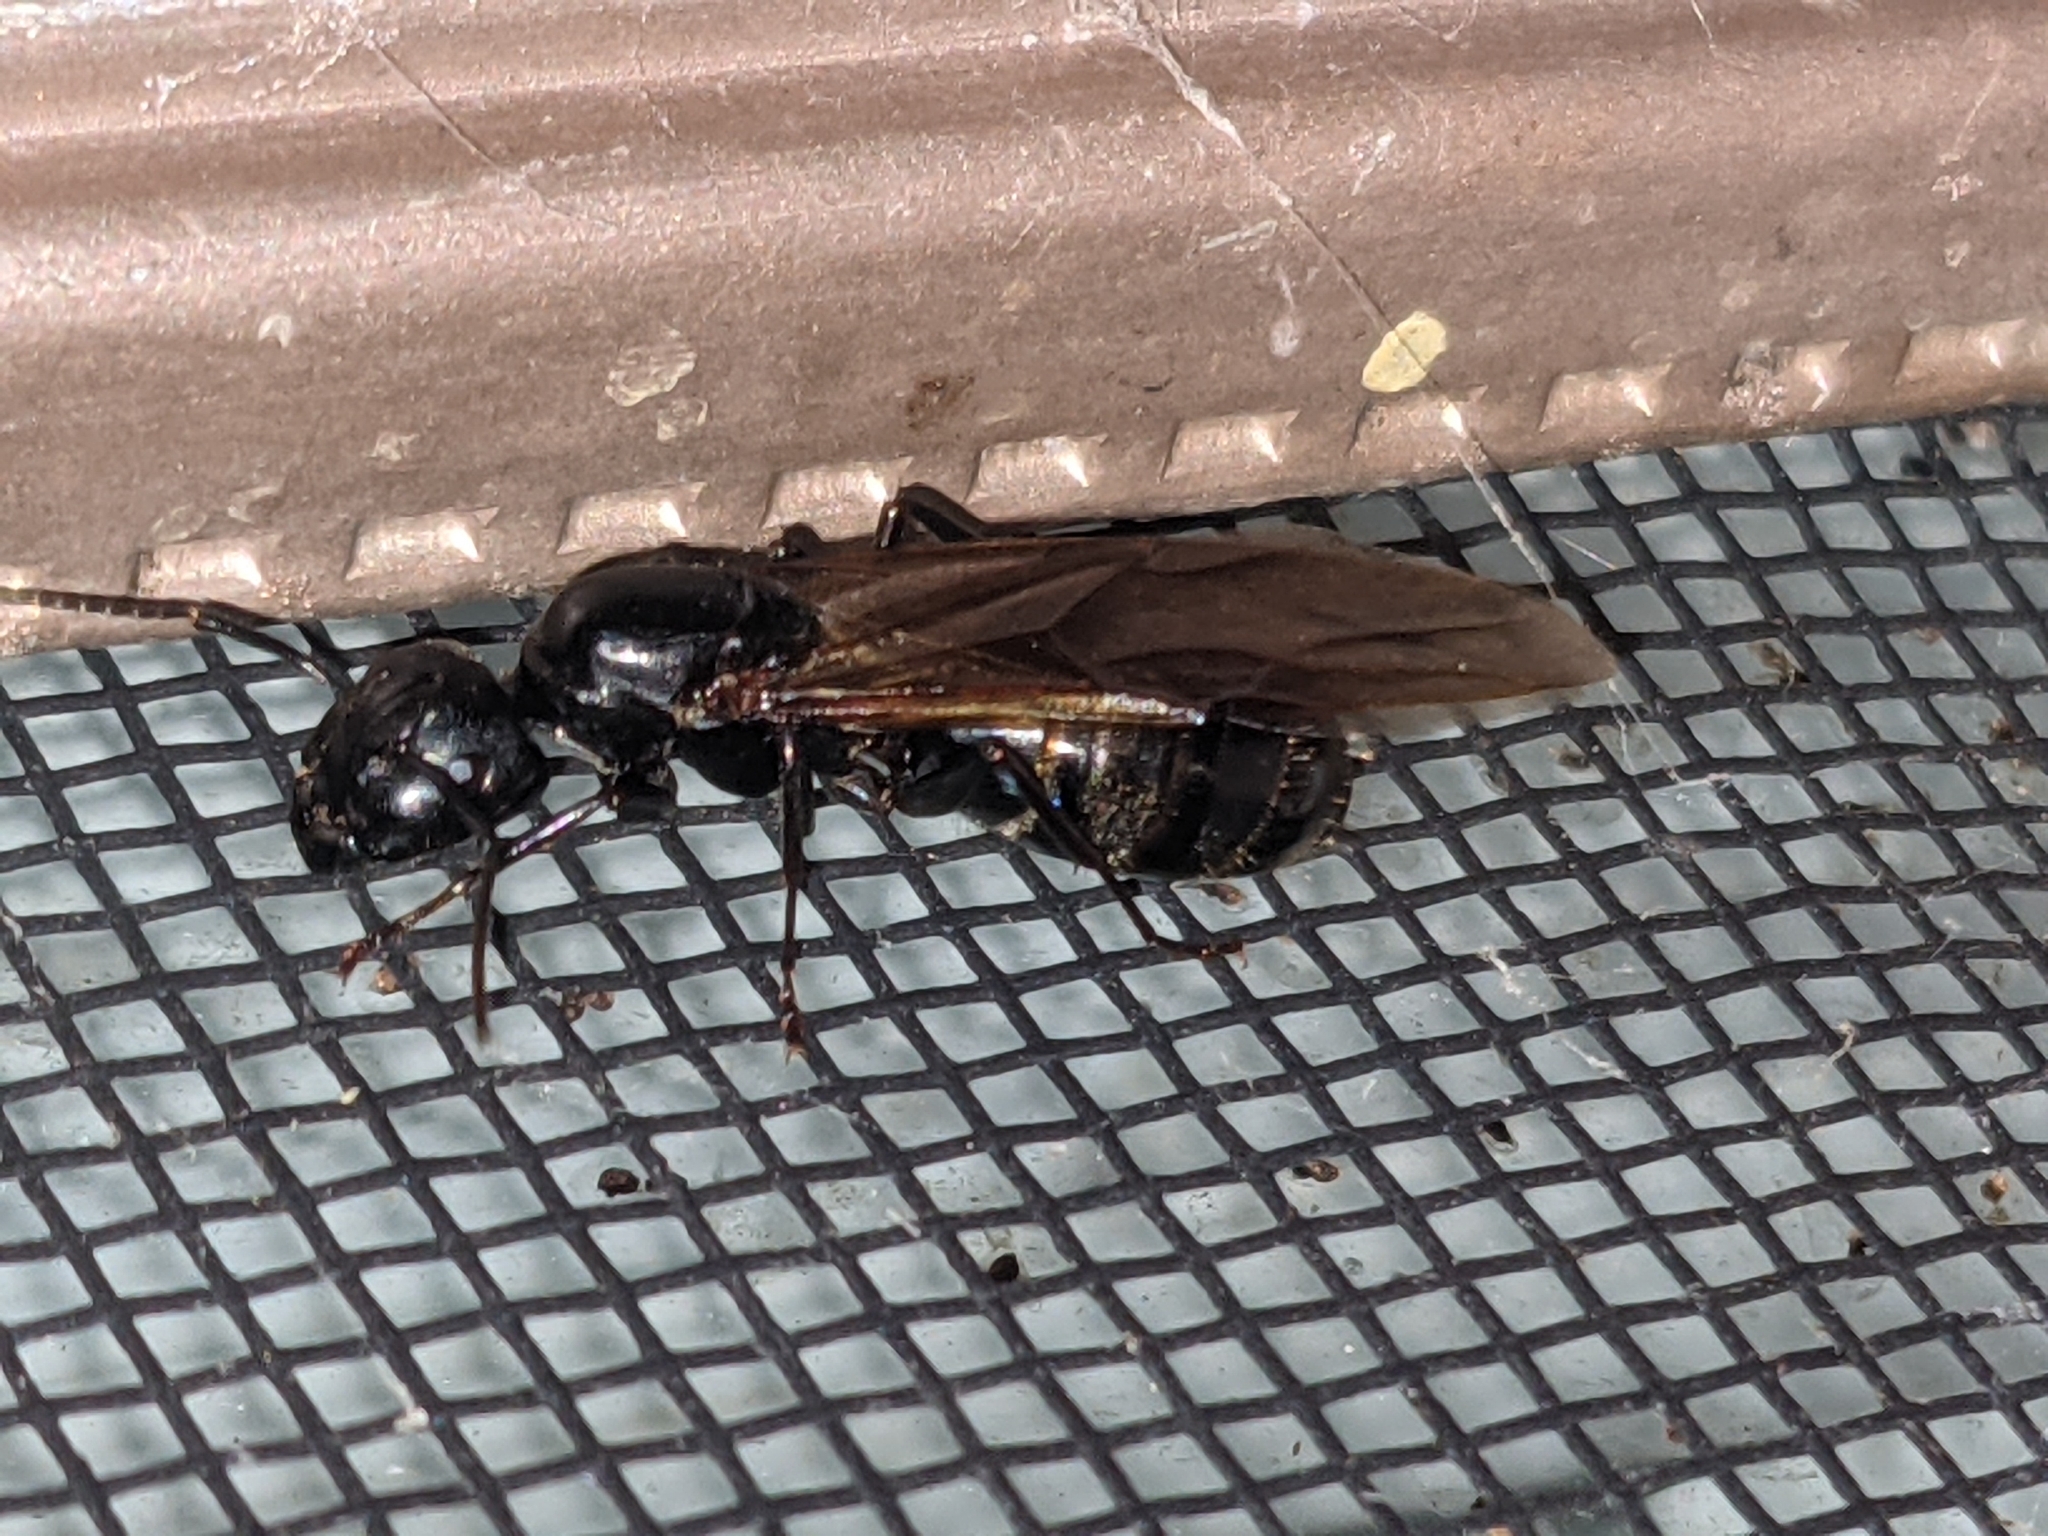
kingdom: Animalia
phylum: Arthropoda
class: Insecta
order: Hymenoptera
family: Formicidae
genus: Camponotus
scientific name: Camponotus pennsylvanicus
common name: Black carpenter ant
